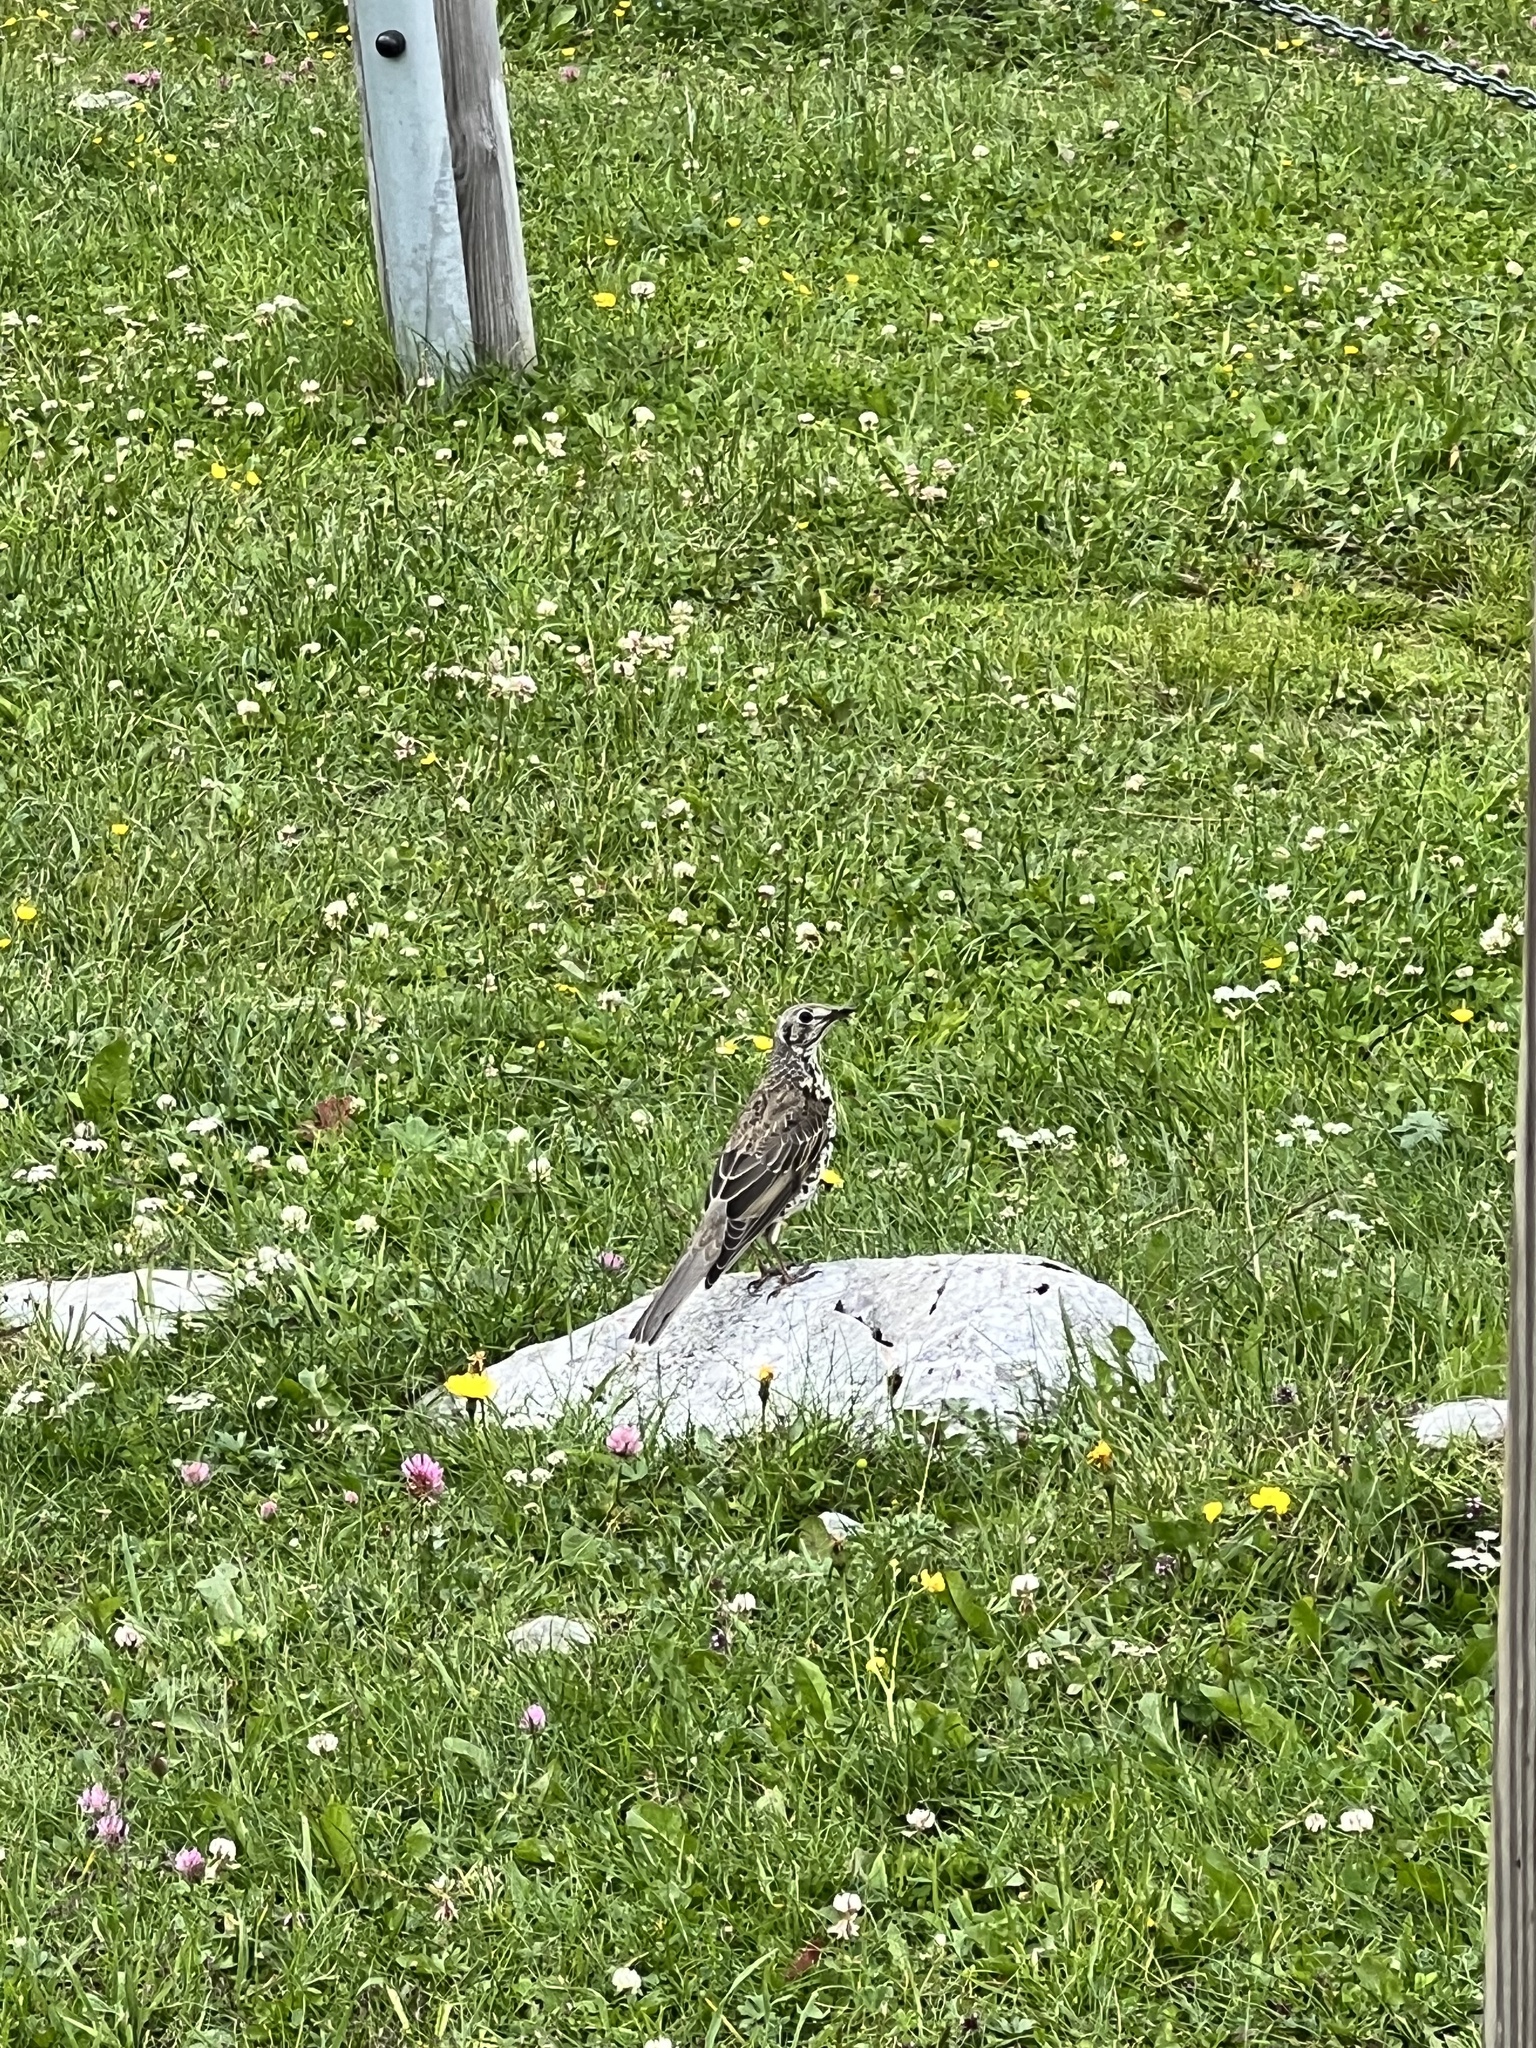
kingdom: Animalia
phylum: Chordata
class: Aves
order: Passeriformes
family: Turdidae
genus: Turdus
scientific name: Turdus viscivorus
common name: Mistle thrush
